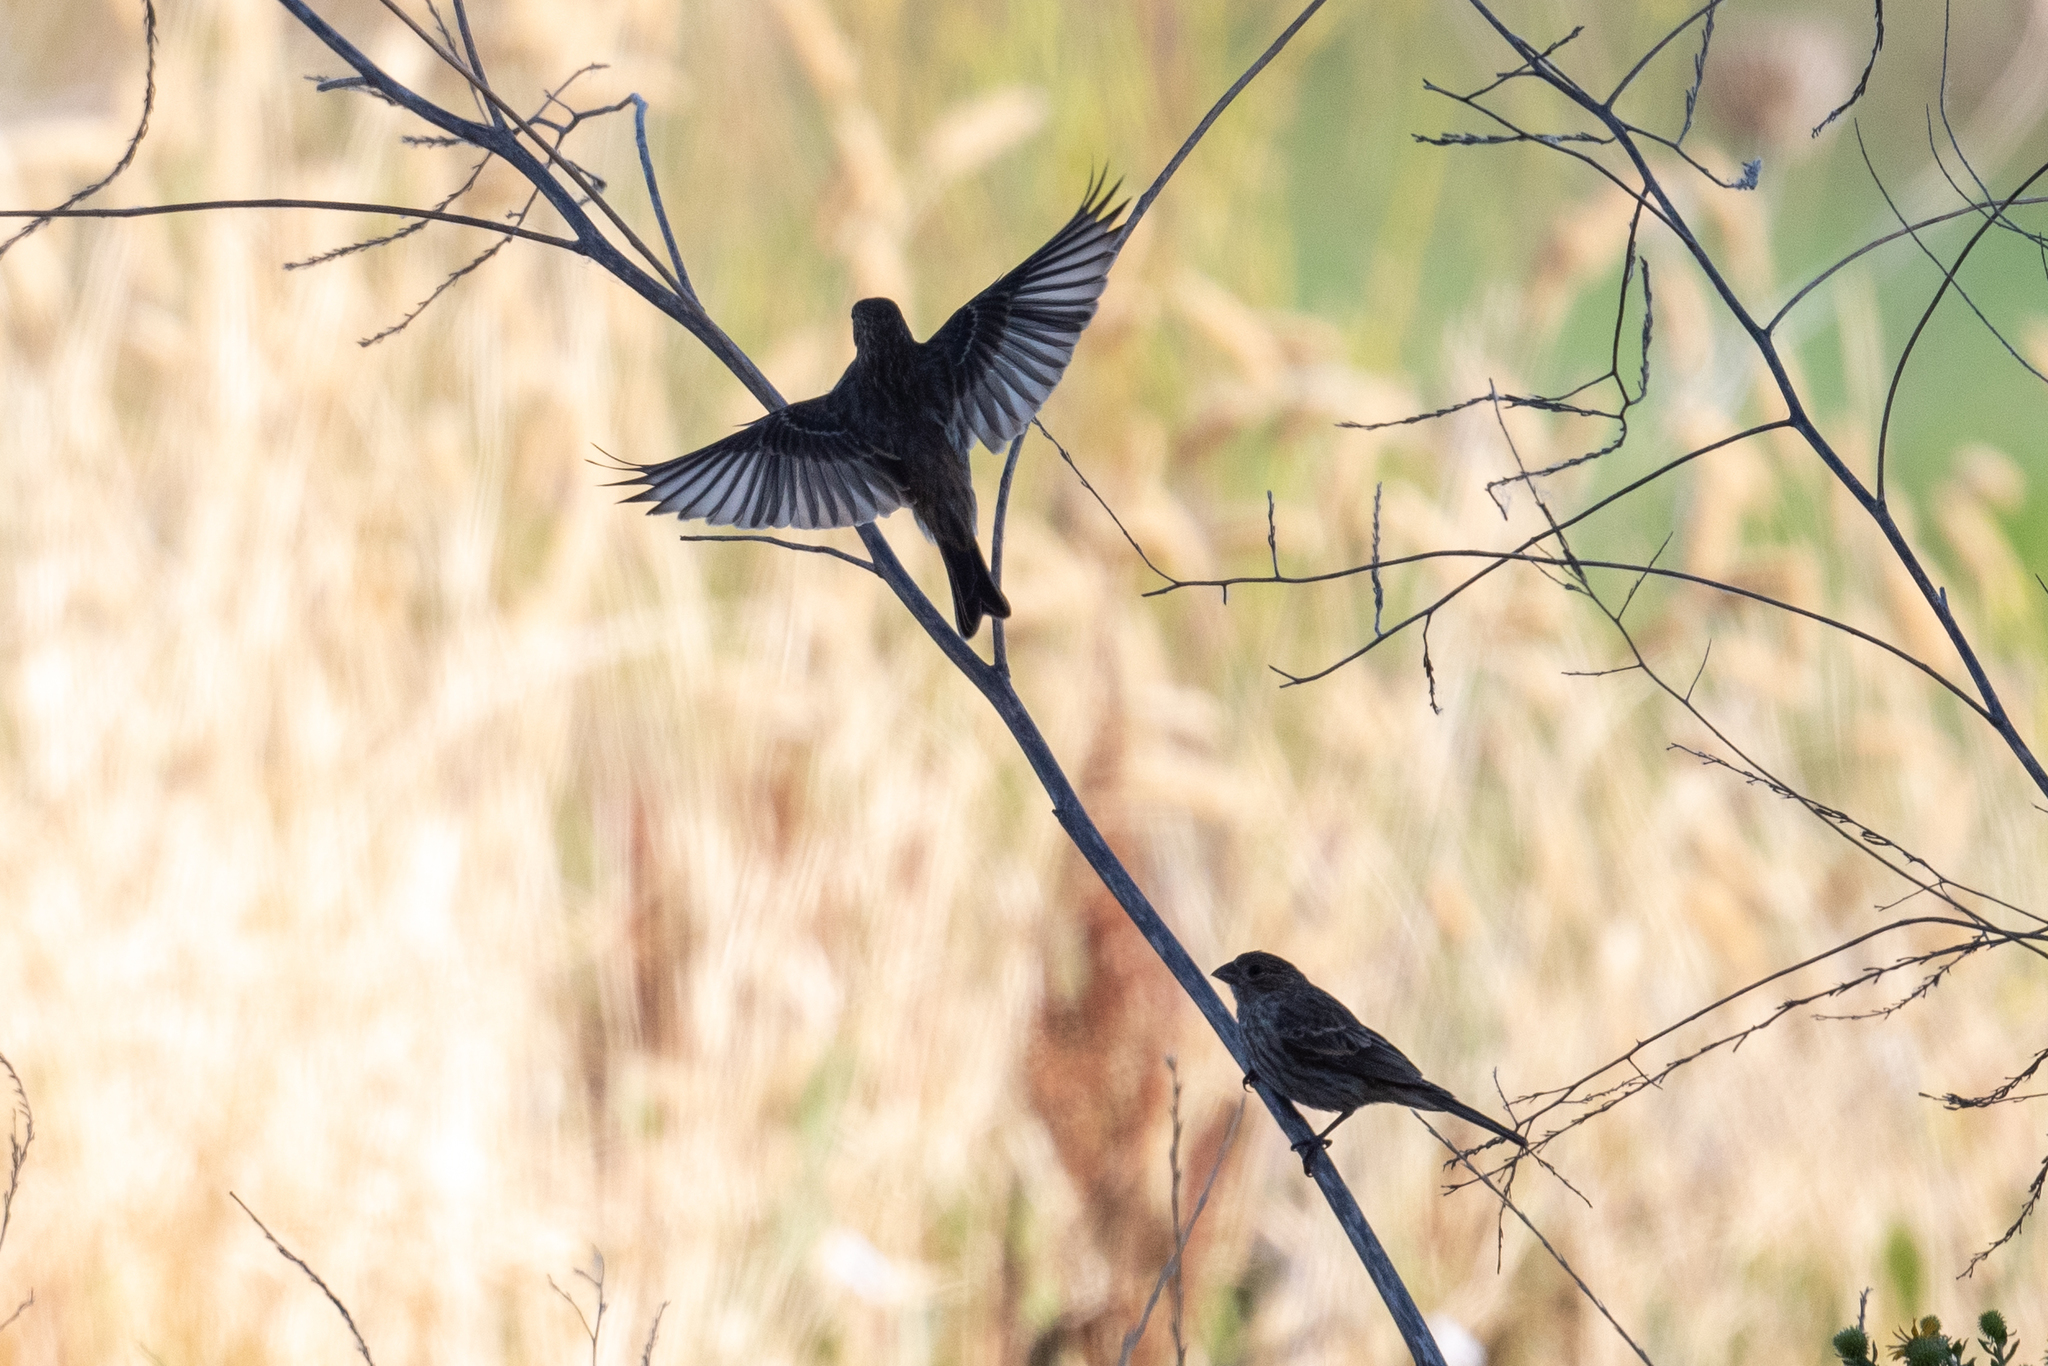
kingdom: Animalia
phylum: Chordata
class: Aves
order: Passeriformes
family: Fringillidae
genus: Haemorhous
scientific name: Haemorhous mexicanus
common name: House finch
